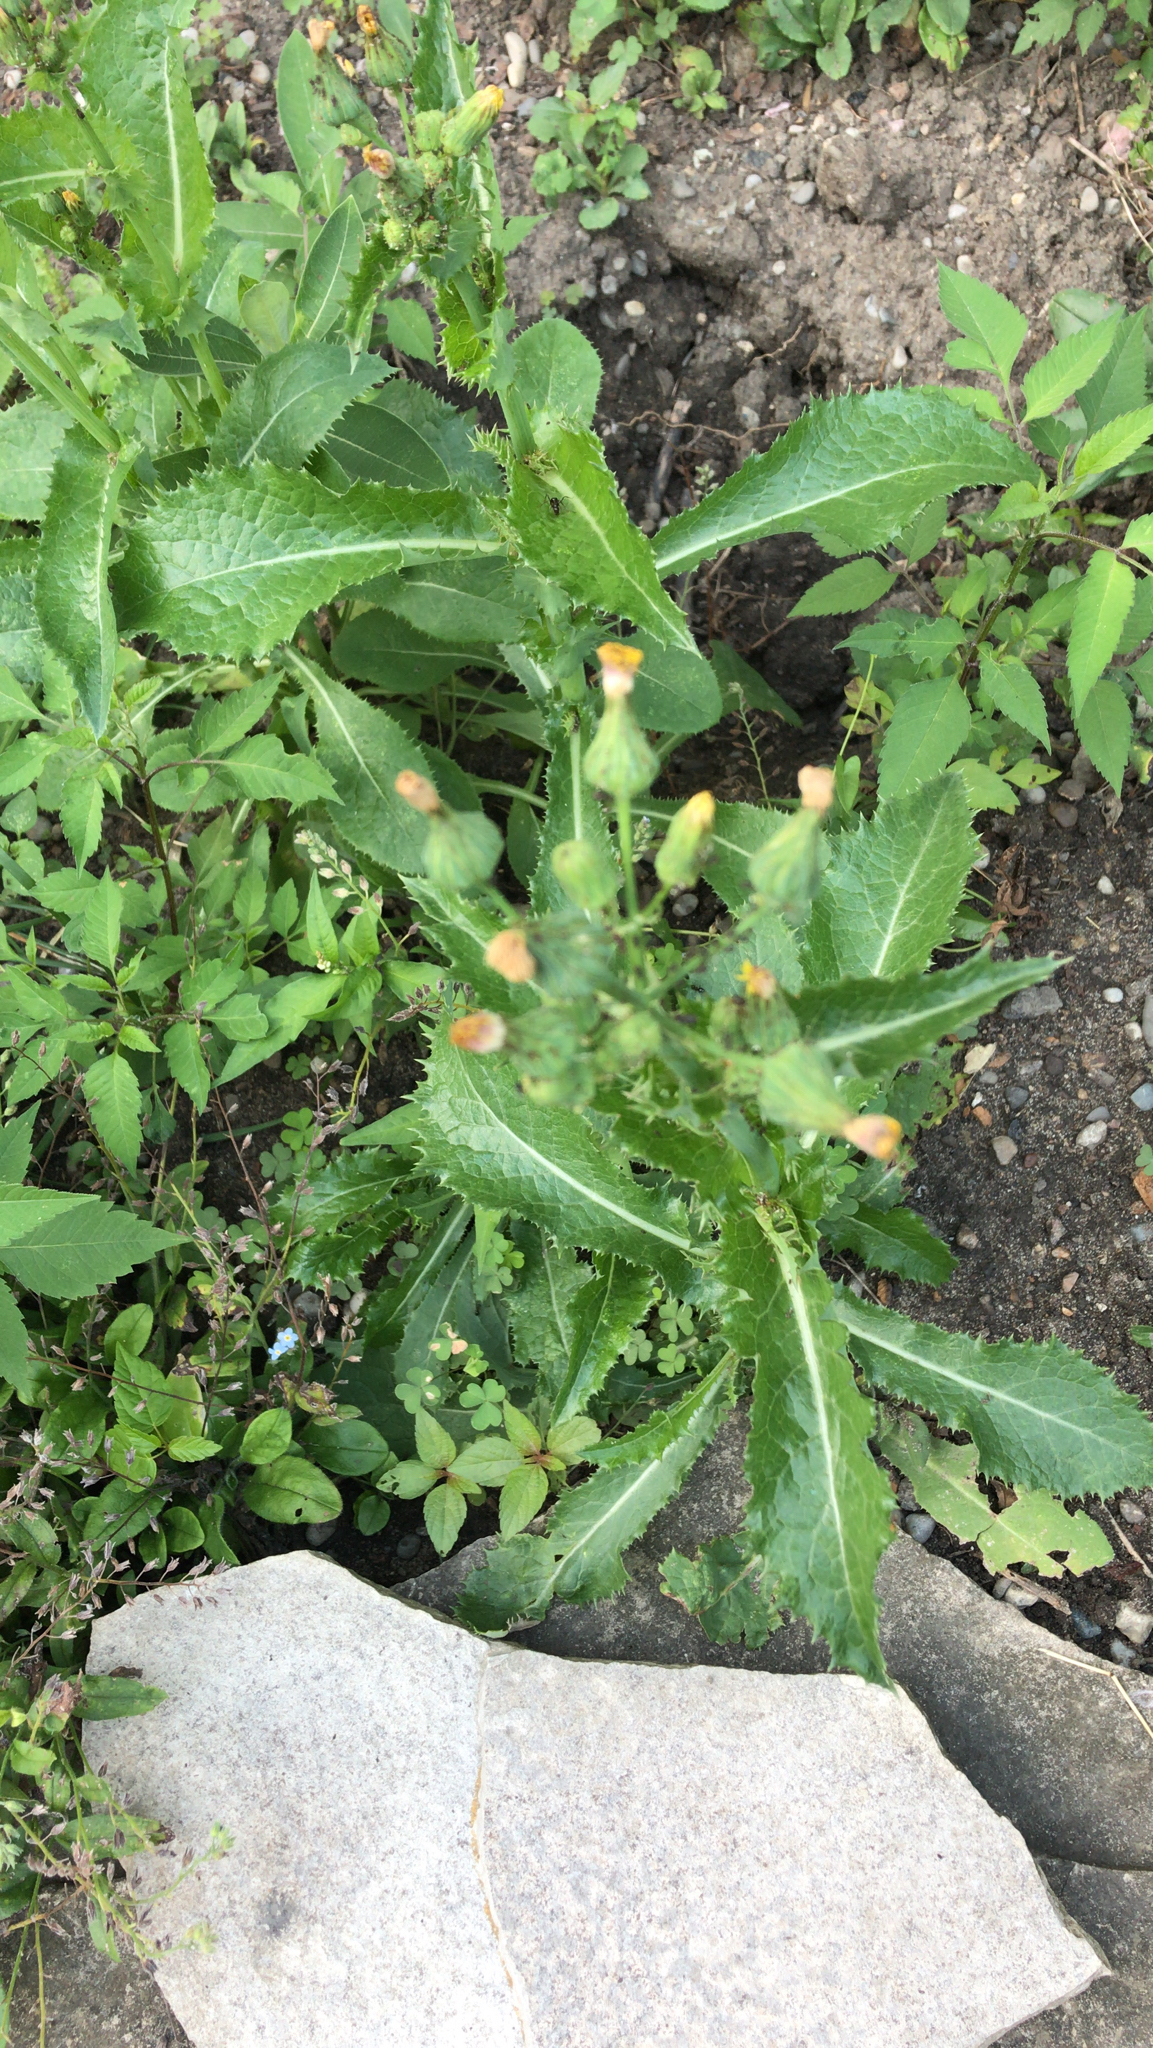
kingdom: Plantae
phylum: Tracheophyta
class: Magnoliopsida
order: Asterales
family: Asteraceae
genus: Sonchus
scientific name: Sonchus asper
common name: Prickly sow-thistle
